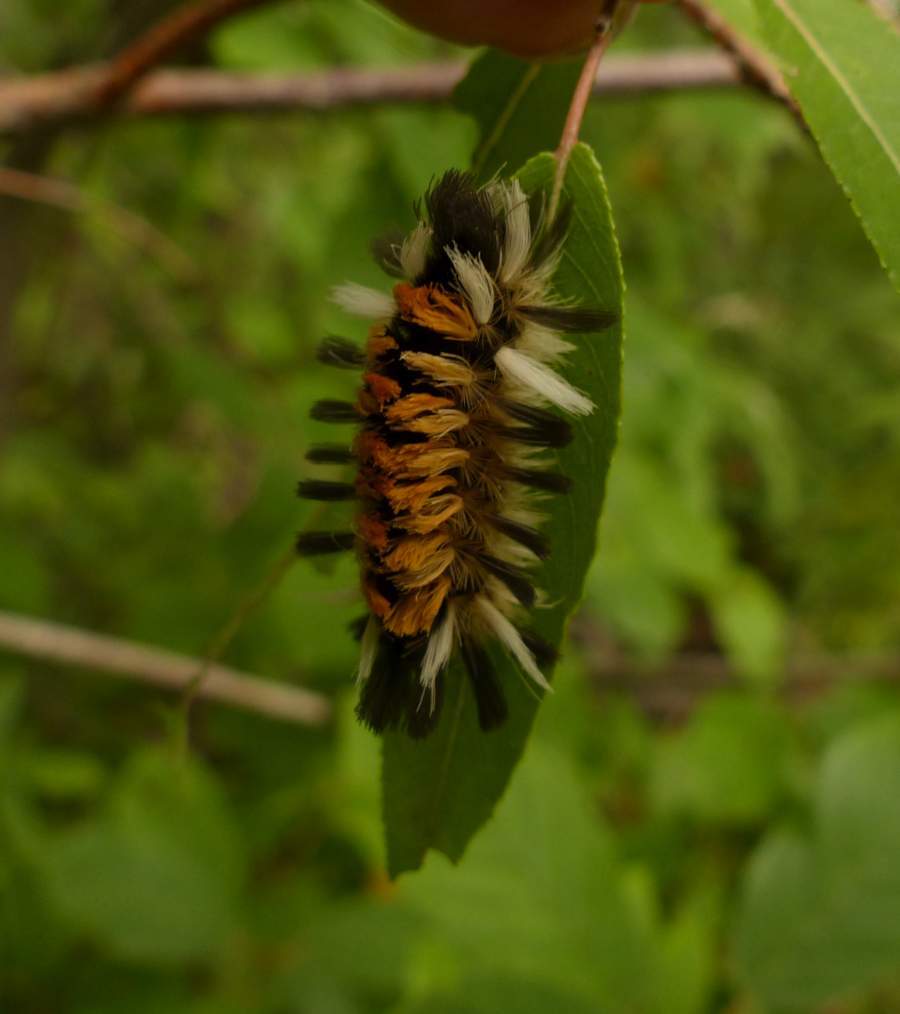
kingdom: Animalia
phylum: Arthropoda
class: Insecta
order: Lepidoptera
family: Erebidae
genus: Euchaetes
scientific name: Euchaetes egle
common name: Milkweed tussock moth
